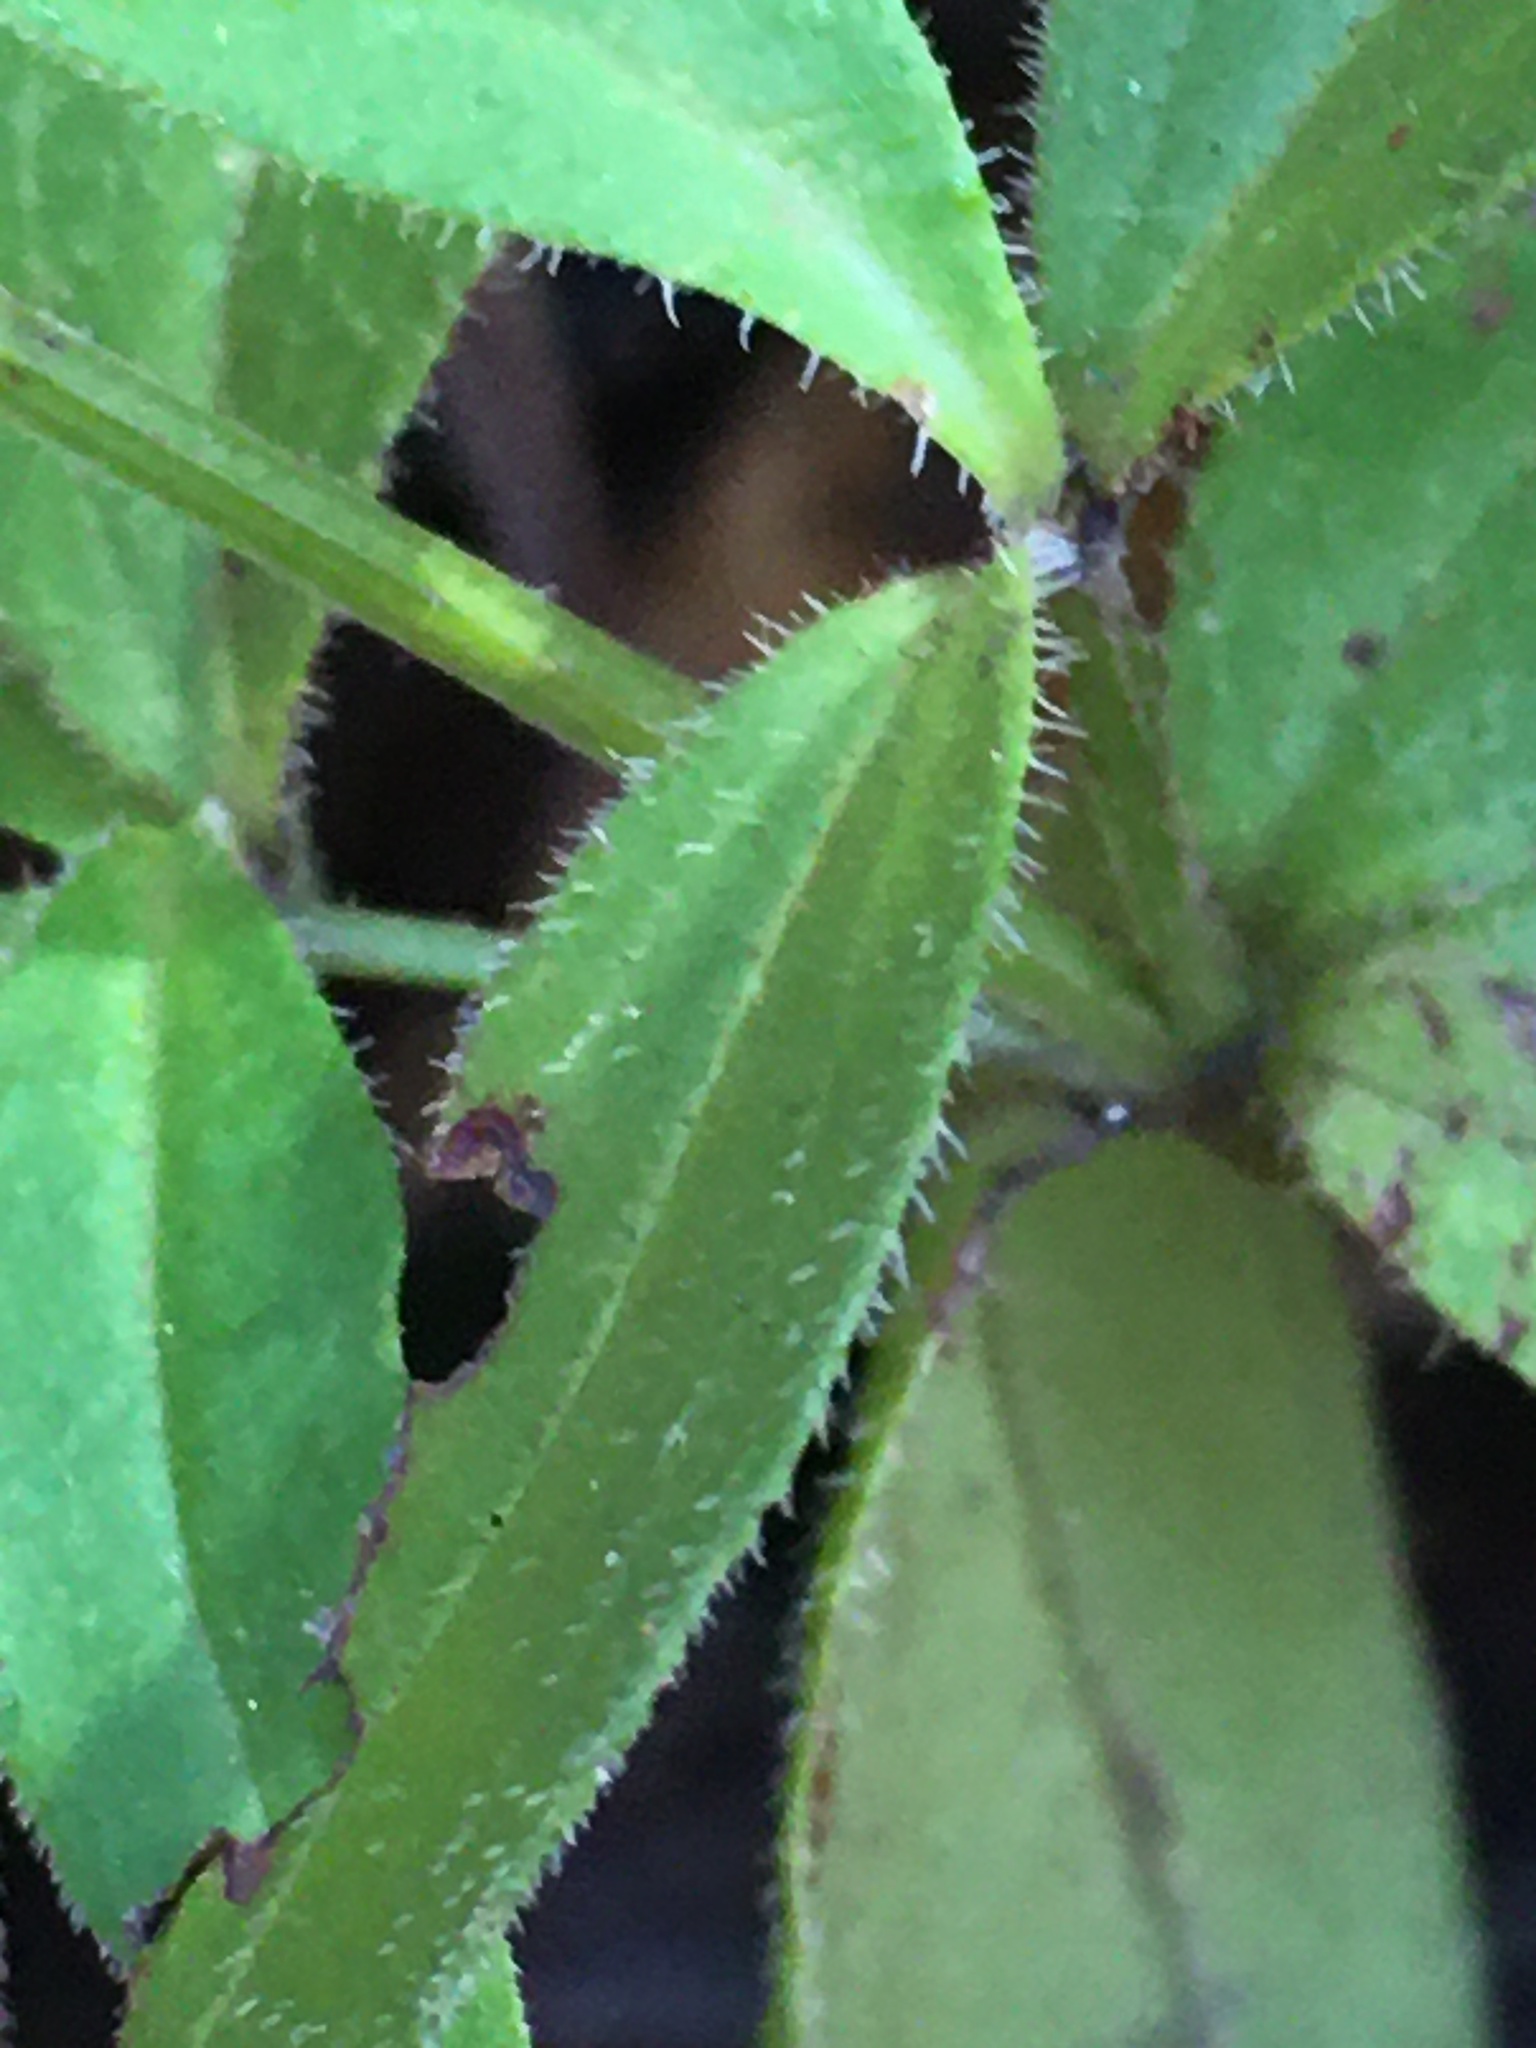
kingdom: Plantae
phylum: Tracheophyta
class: Magnoliopsida
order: Gentianales
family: Rubiaceae
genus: Galium
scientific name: Galium circaezans
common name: Forest bedstraw
